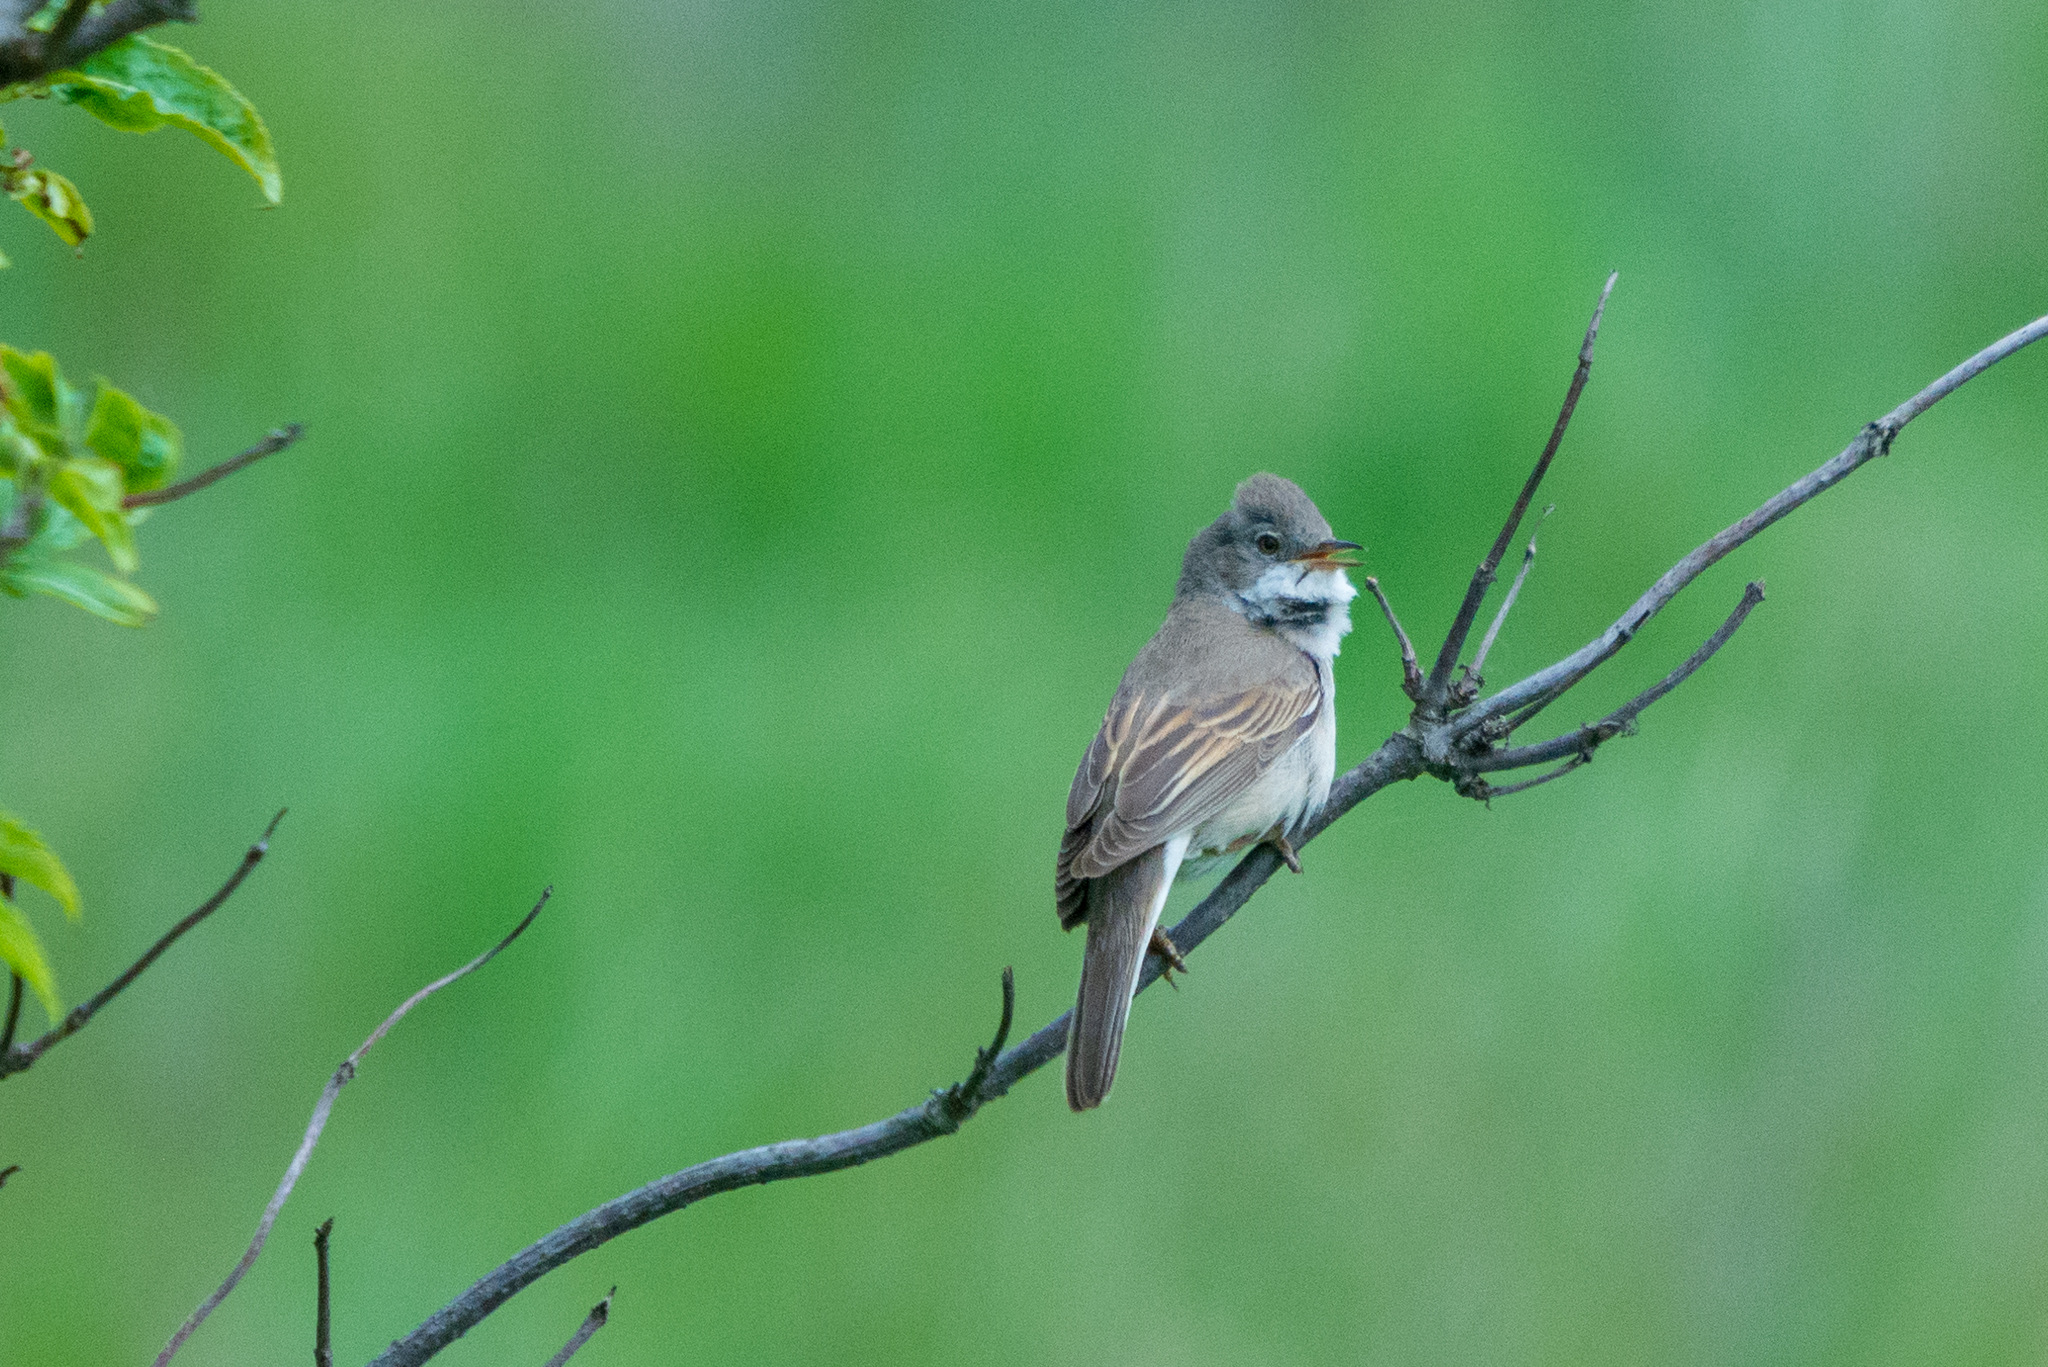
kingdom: Animalia
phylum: Chordata
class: Aves
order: Passeriformes
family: Sylviidae
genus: Sylvia
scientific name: Sylvia communis
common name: Common whitethroat
